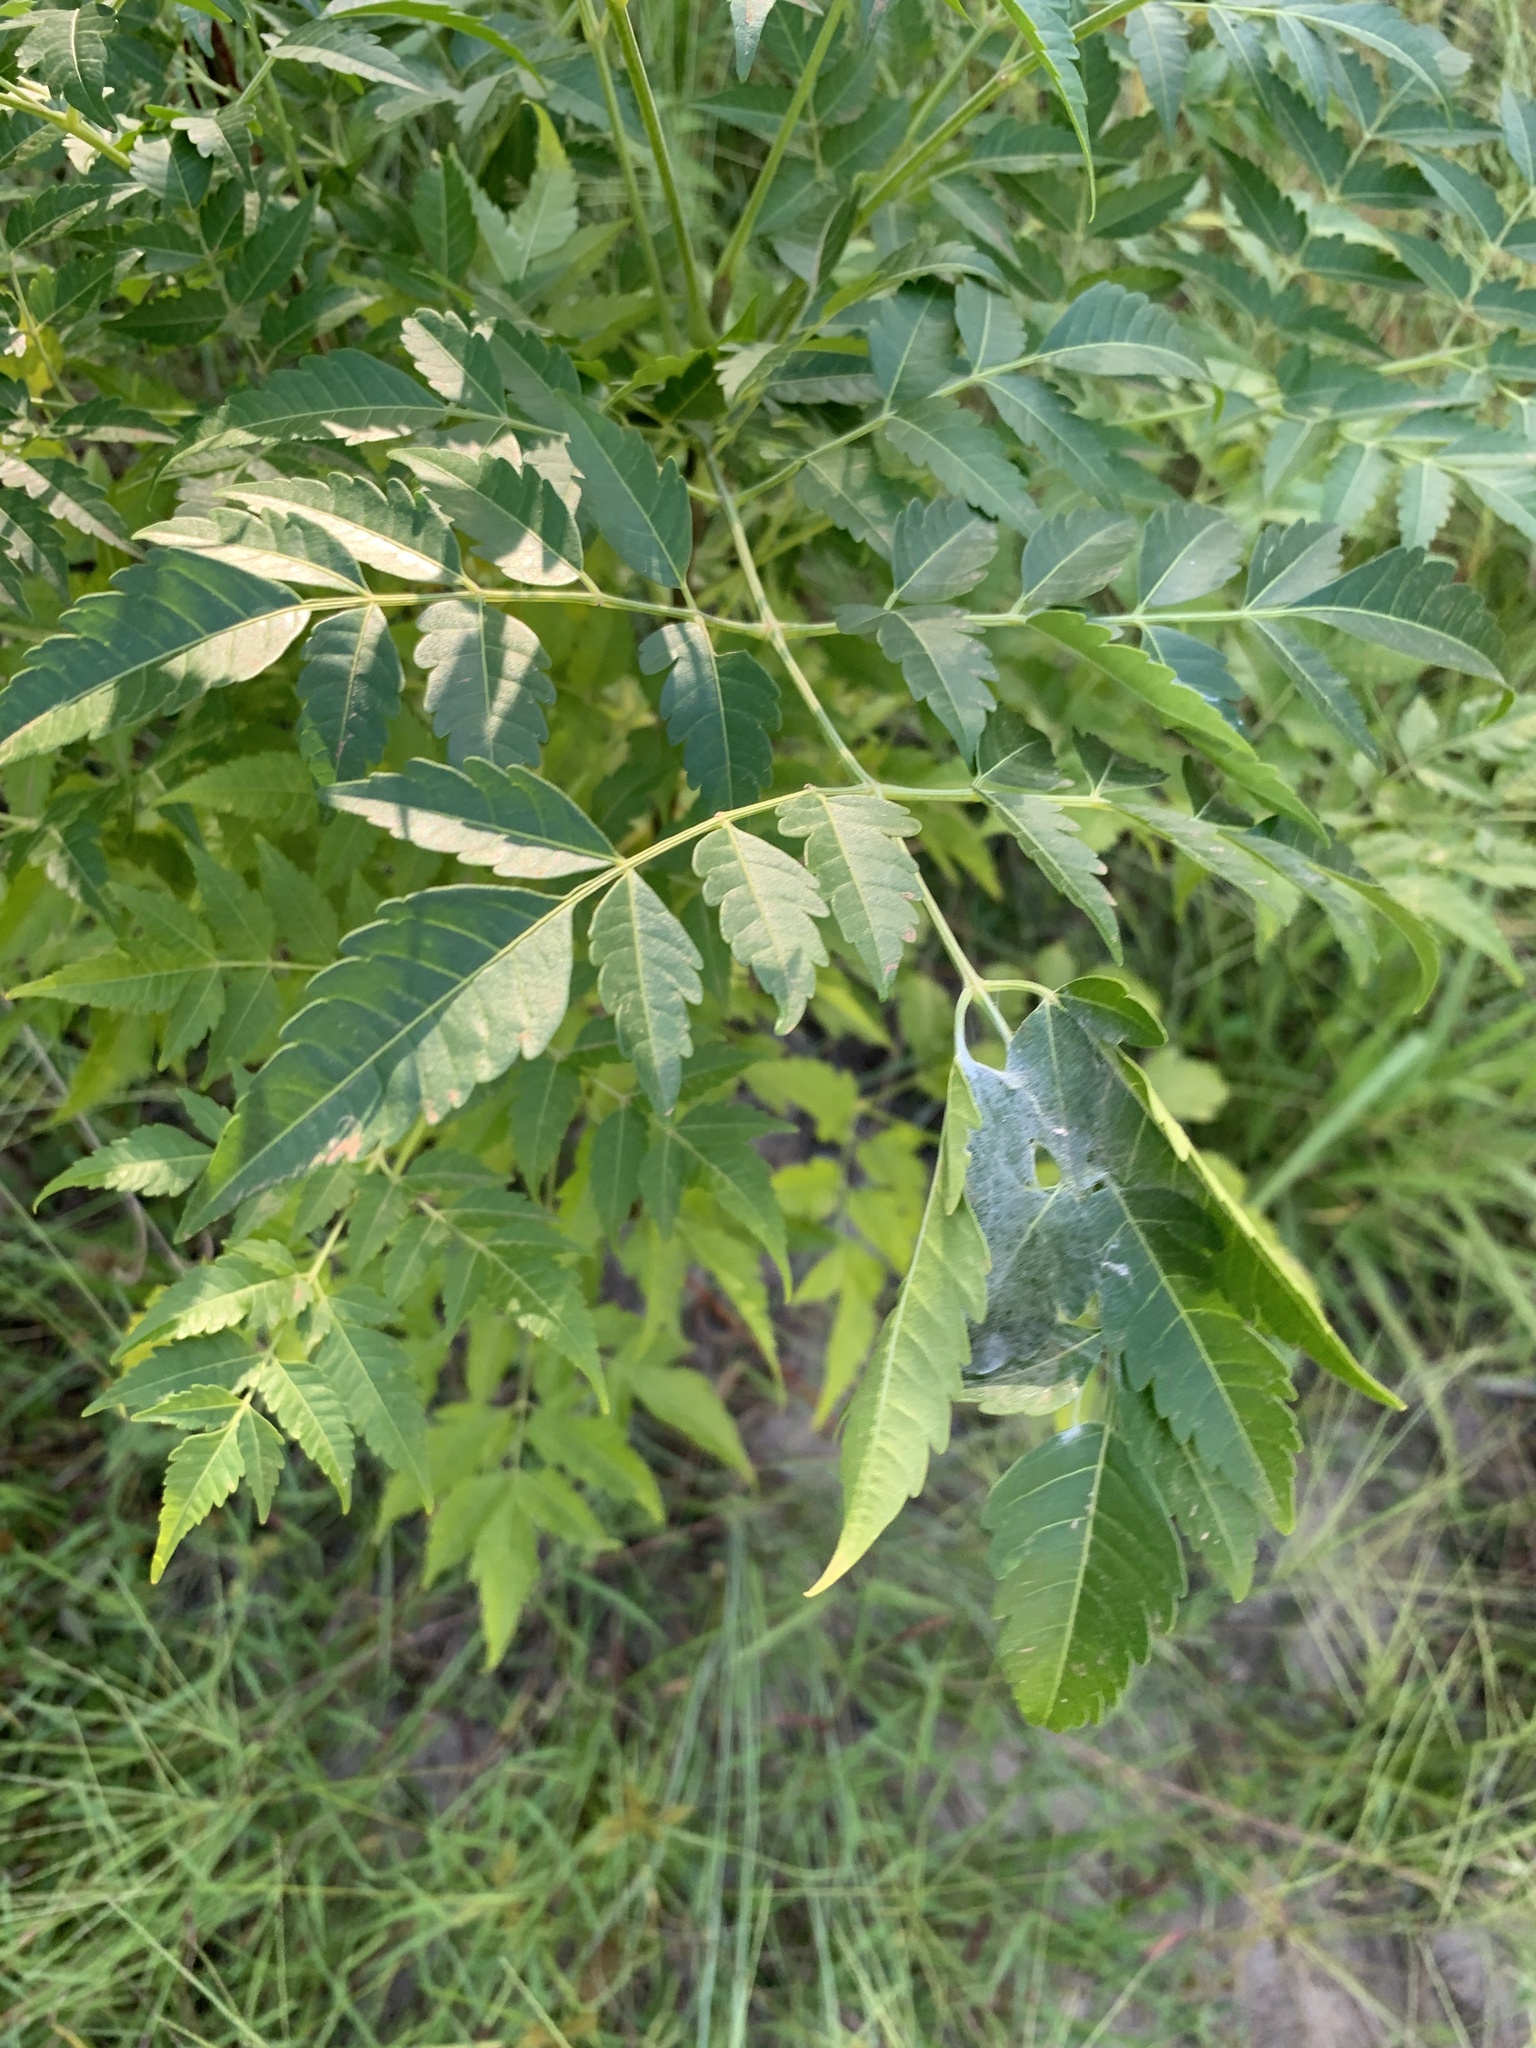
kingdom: Plantae
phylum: Tracheophyta
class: Magnoliopsida
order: Sapindales
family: Meliaceae
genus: Melia
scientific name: Melia azedarach
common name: Chinaberrytree
